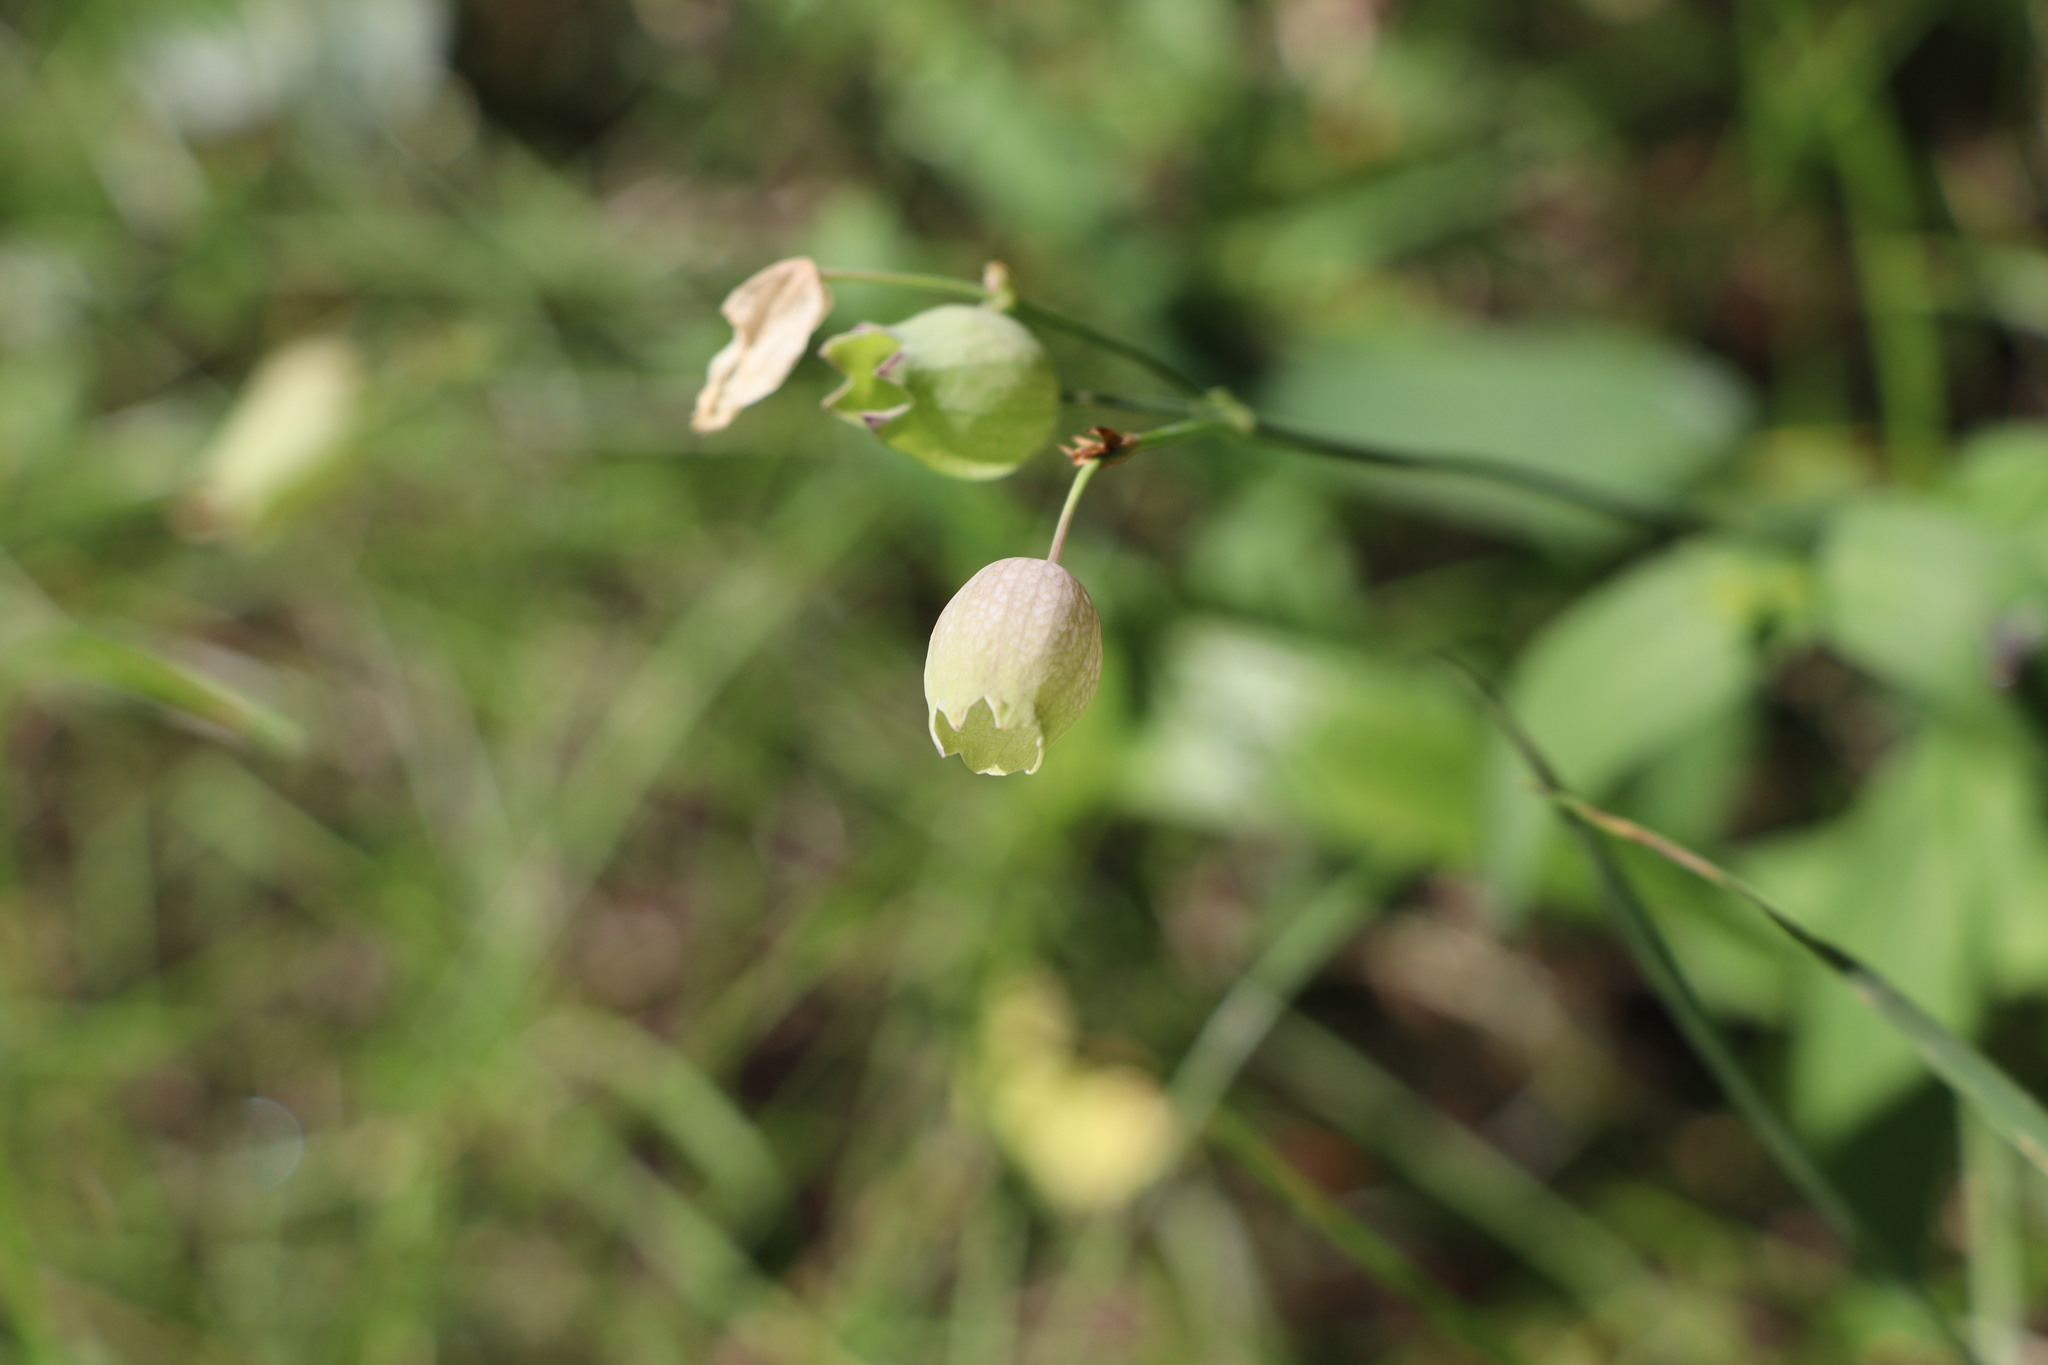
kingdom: Plantae
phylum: Tracheophyta
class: Magnoliopsida
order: Caryophyllales
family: Caryophyllaceae
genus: Silene
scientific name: Silene vulgaris
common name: Bladder campion
